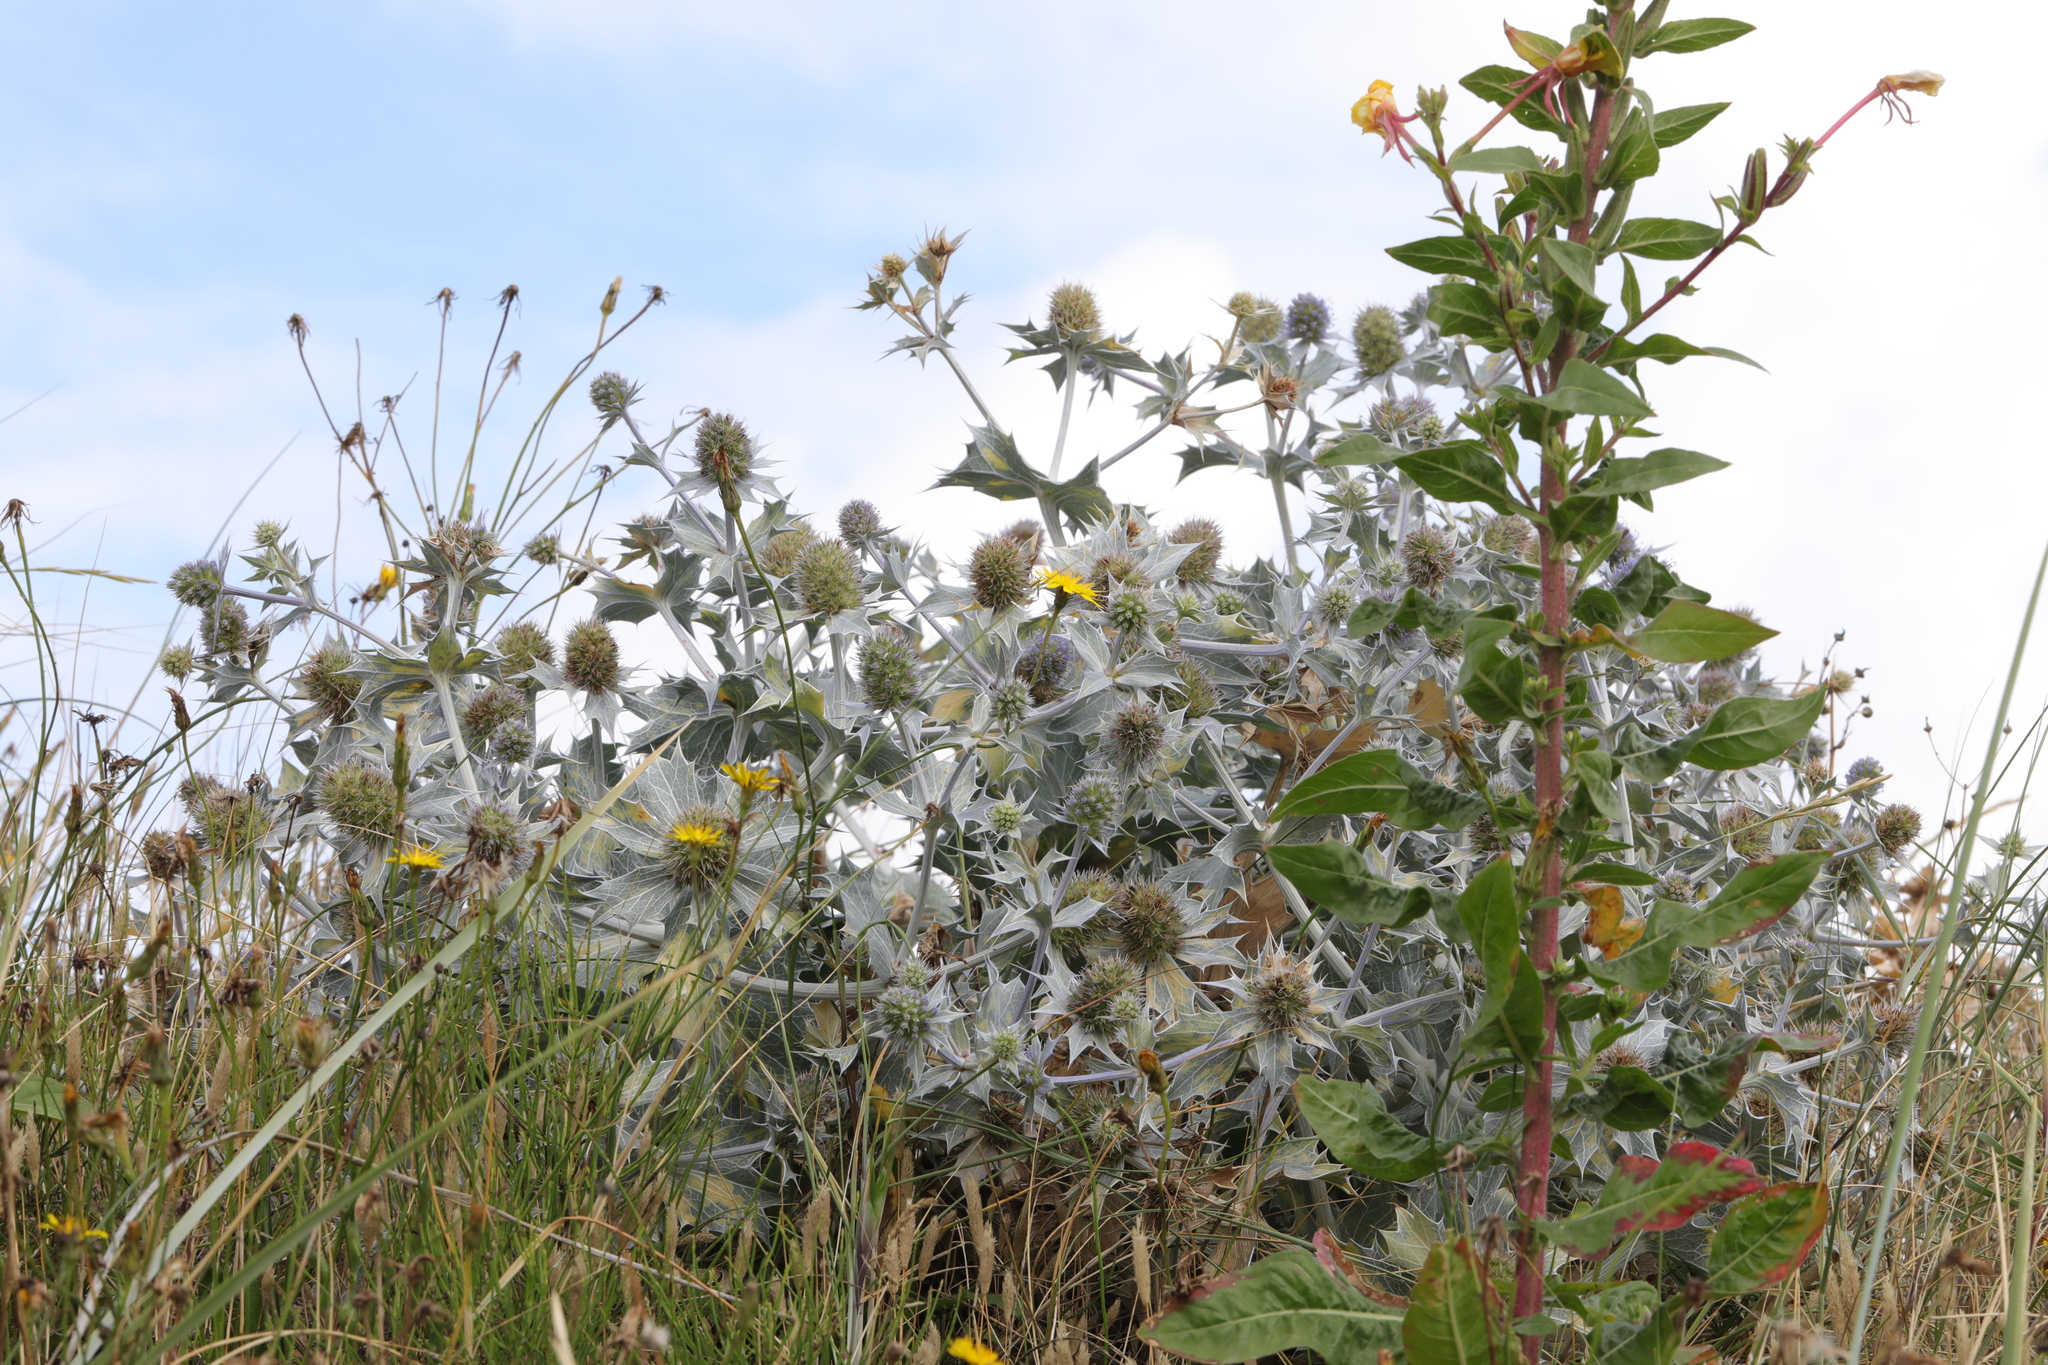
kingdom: Plantae
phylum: Tracheophyta
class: Magnoliopsida
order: Apiales
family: Apiaceae
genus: Eryngium
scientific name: Eryngium maritimum
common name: Sea-holly
